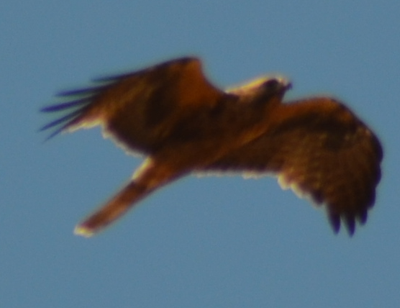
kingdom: Animalia
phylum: Chordata
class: Aves
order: Accipitriformes
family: Accipitridae
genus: Hieraaetus
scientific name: Hieraaetus pennatus
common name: Booted eagle
